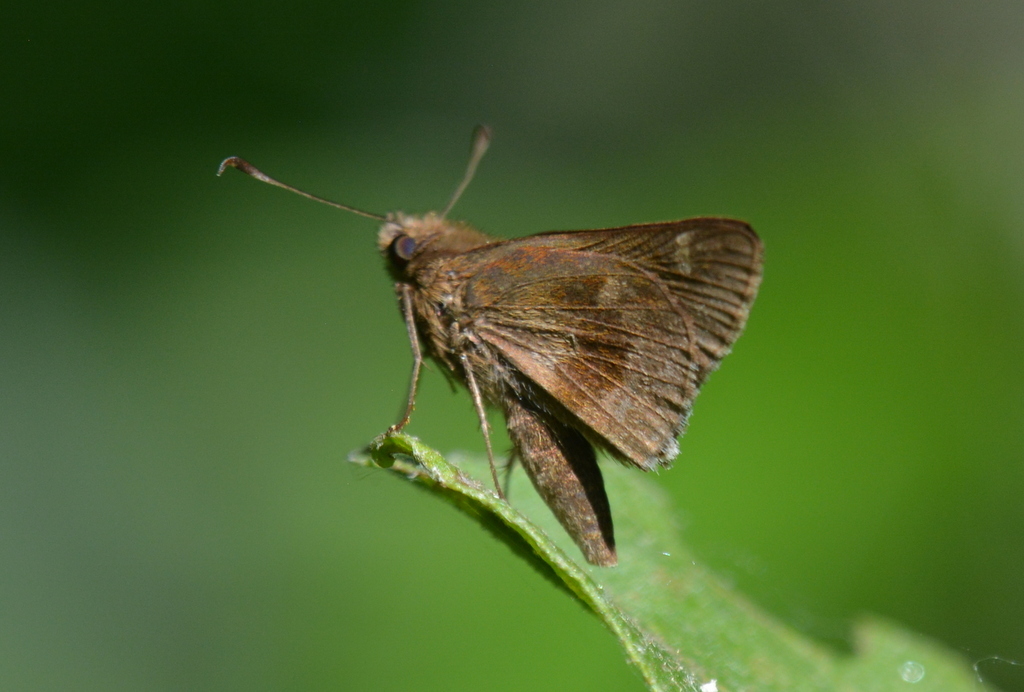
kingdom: Animalia
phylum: Arthropoda
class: Insecta
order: Lepidoptera
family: Hesperiidae
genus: Cymaenes
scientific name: Cymaenes
